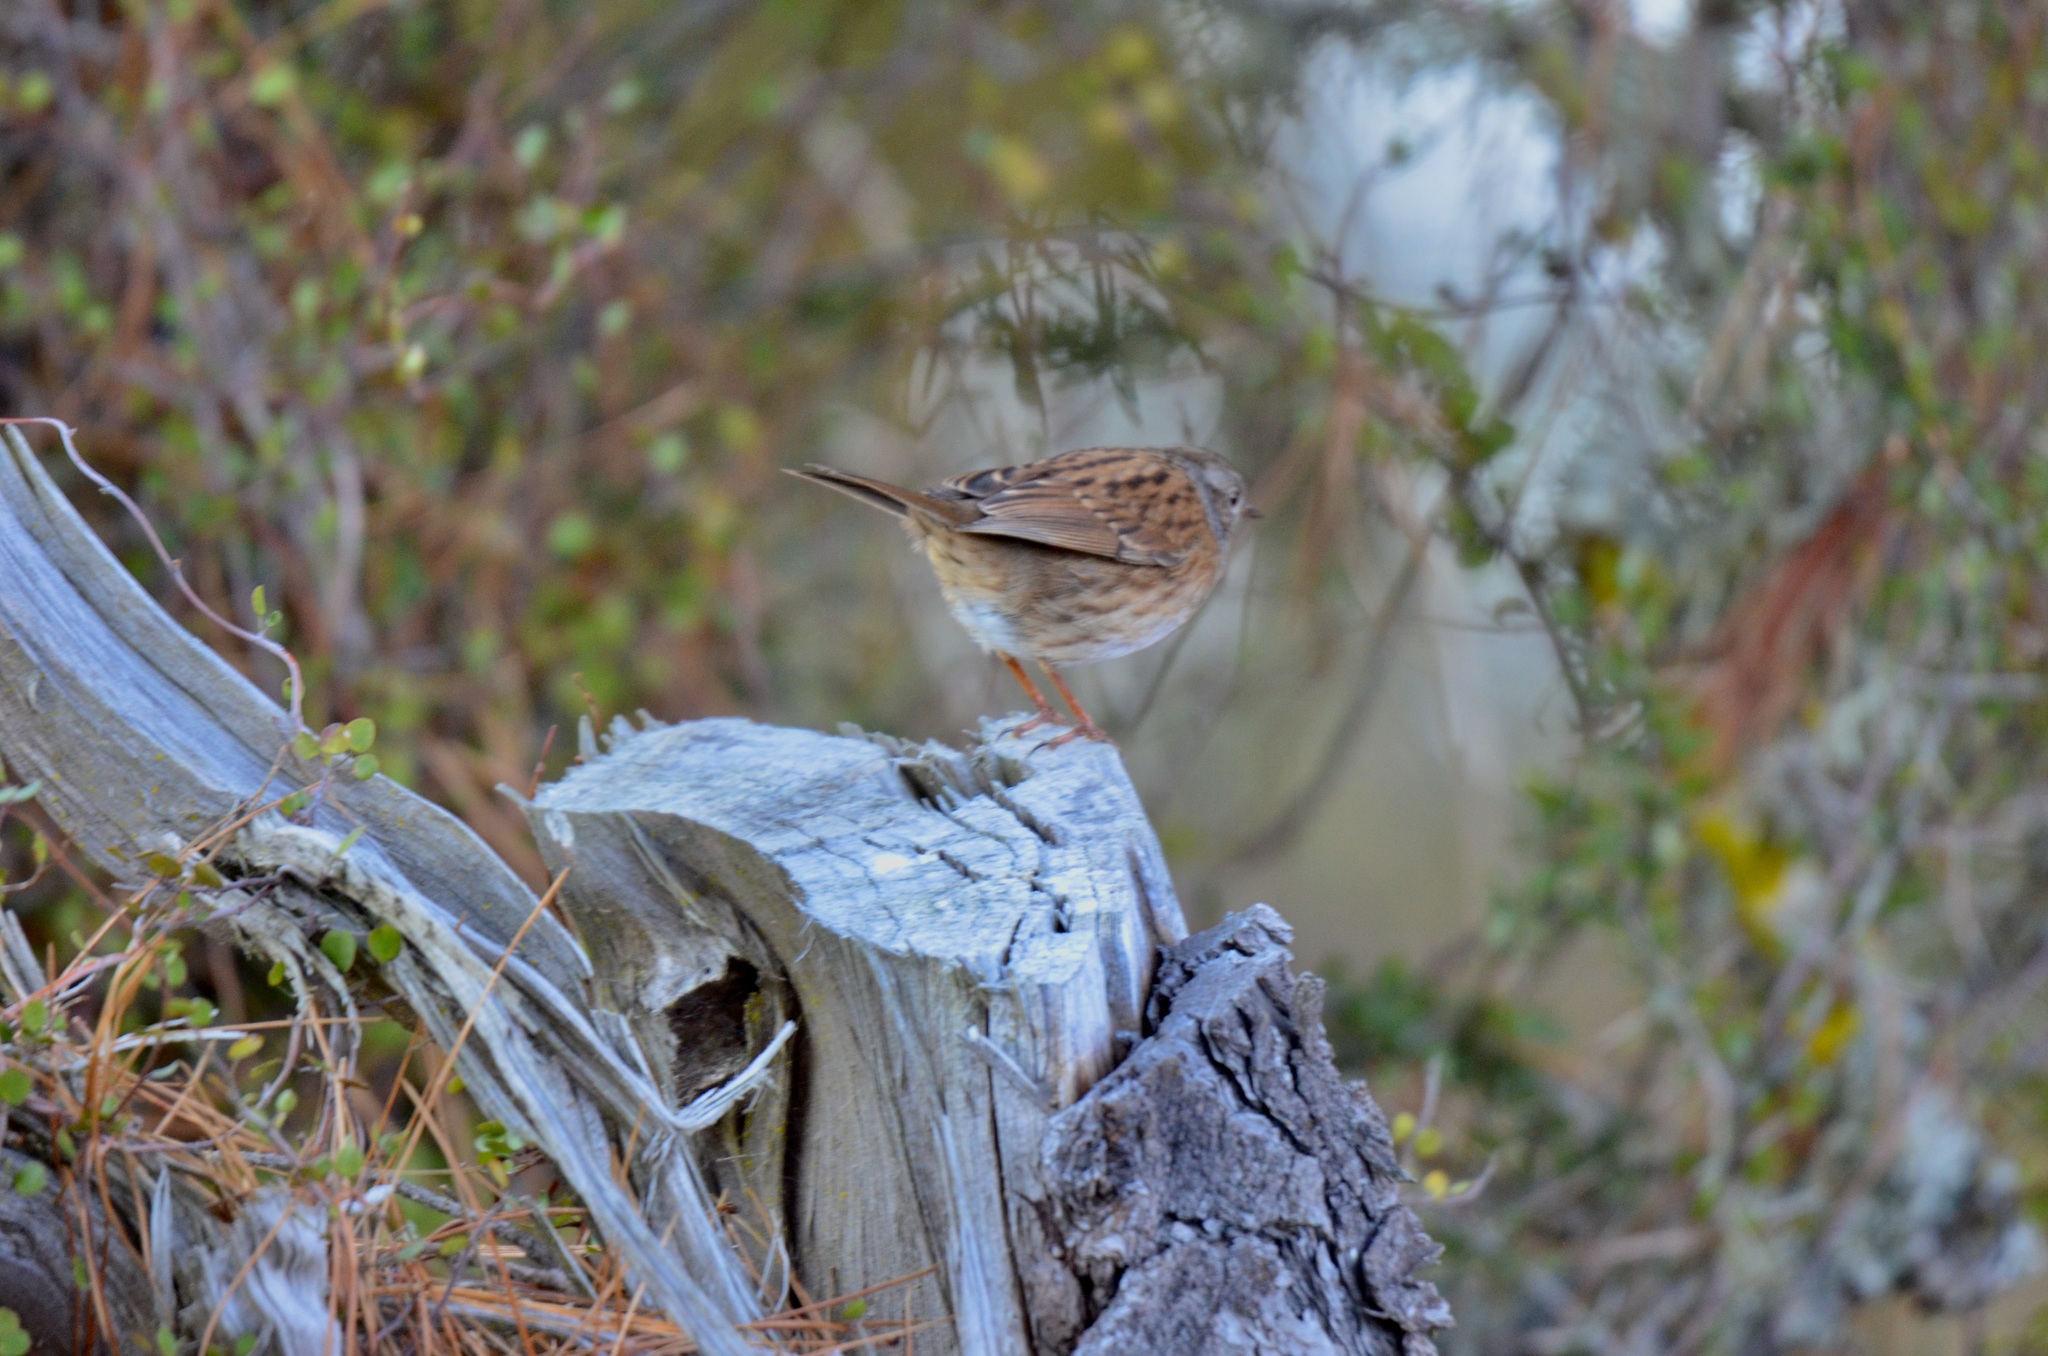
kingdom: Animalia
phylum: Chordata
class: Aves
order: Passeriformes
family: Prunellidae
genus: Prunella
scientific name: Prunella modularis
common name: Dunnock
